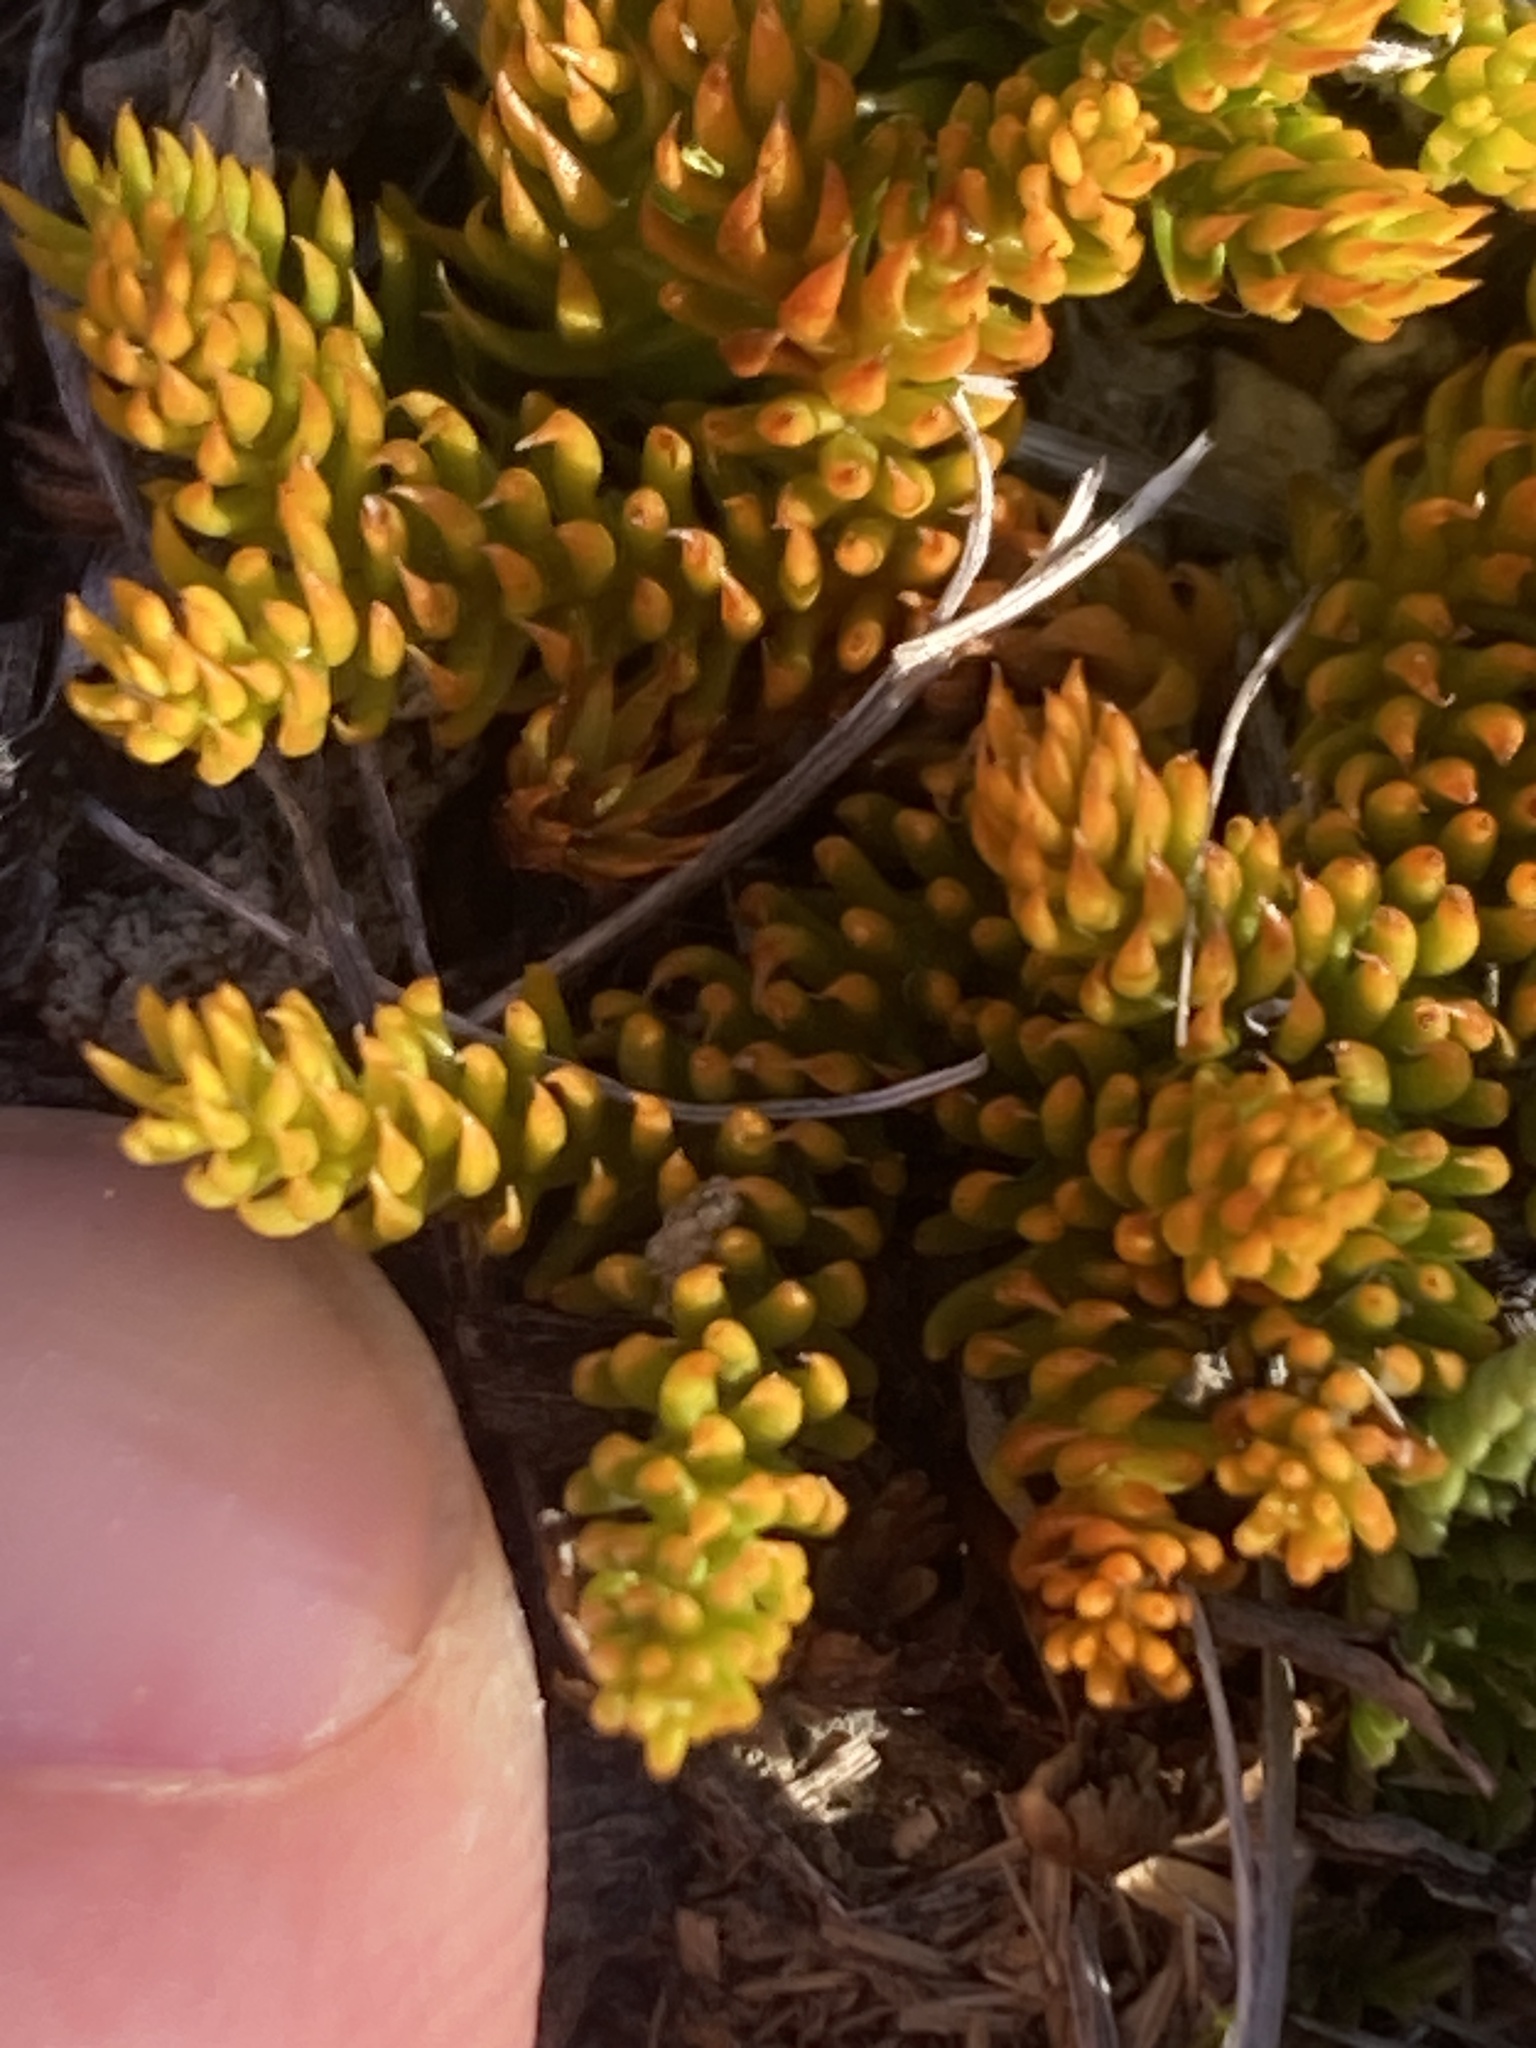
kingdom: Plantae
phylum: Tracheophyta
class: Lycopodiopsida
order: Lycopodiales
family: Lycopodiaceae
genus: Austrolycopodium
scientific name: Austrolycopodium fastigiatum
